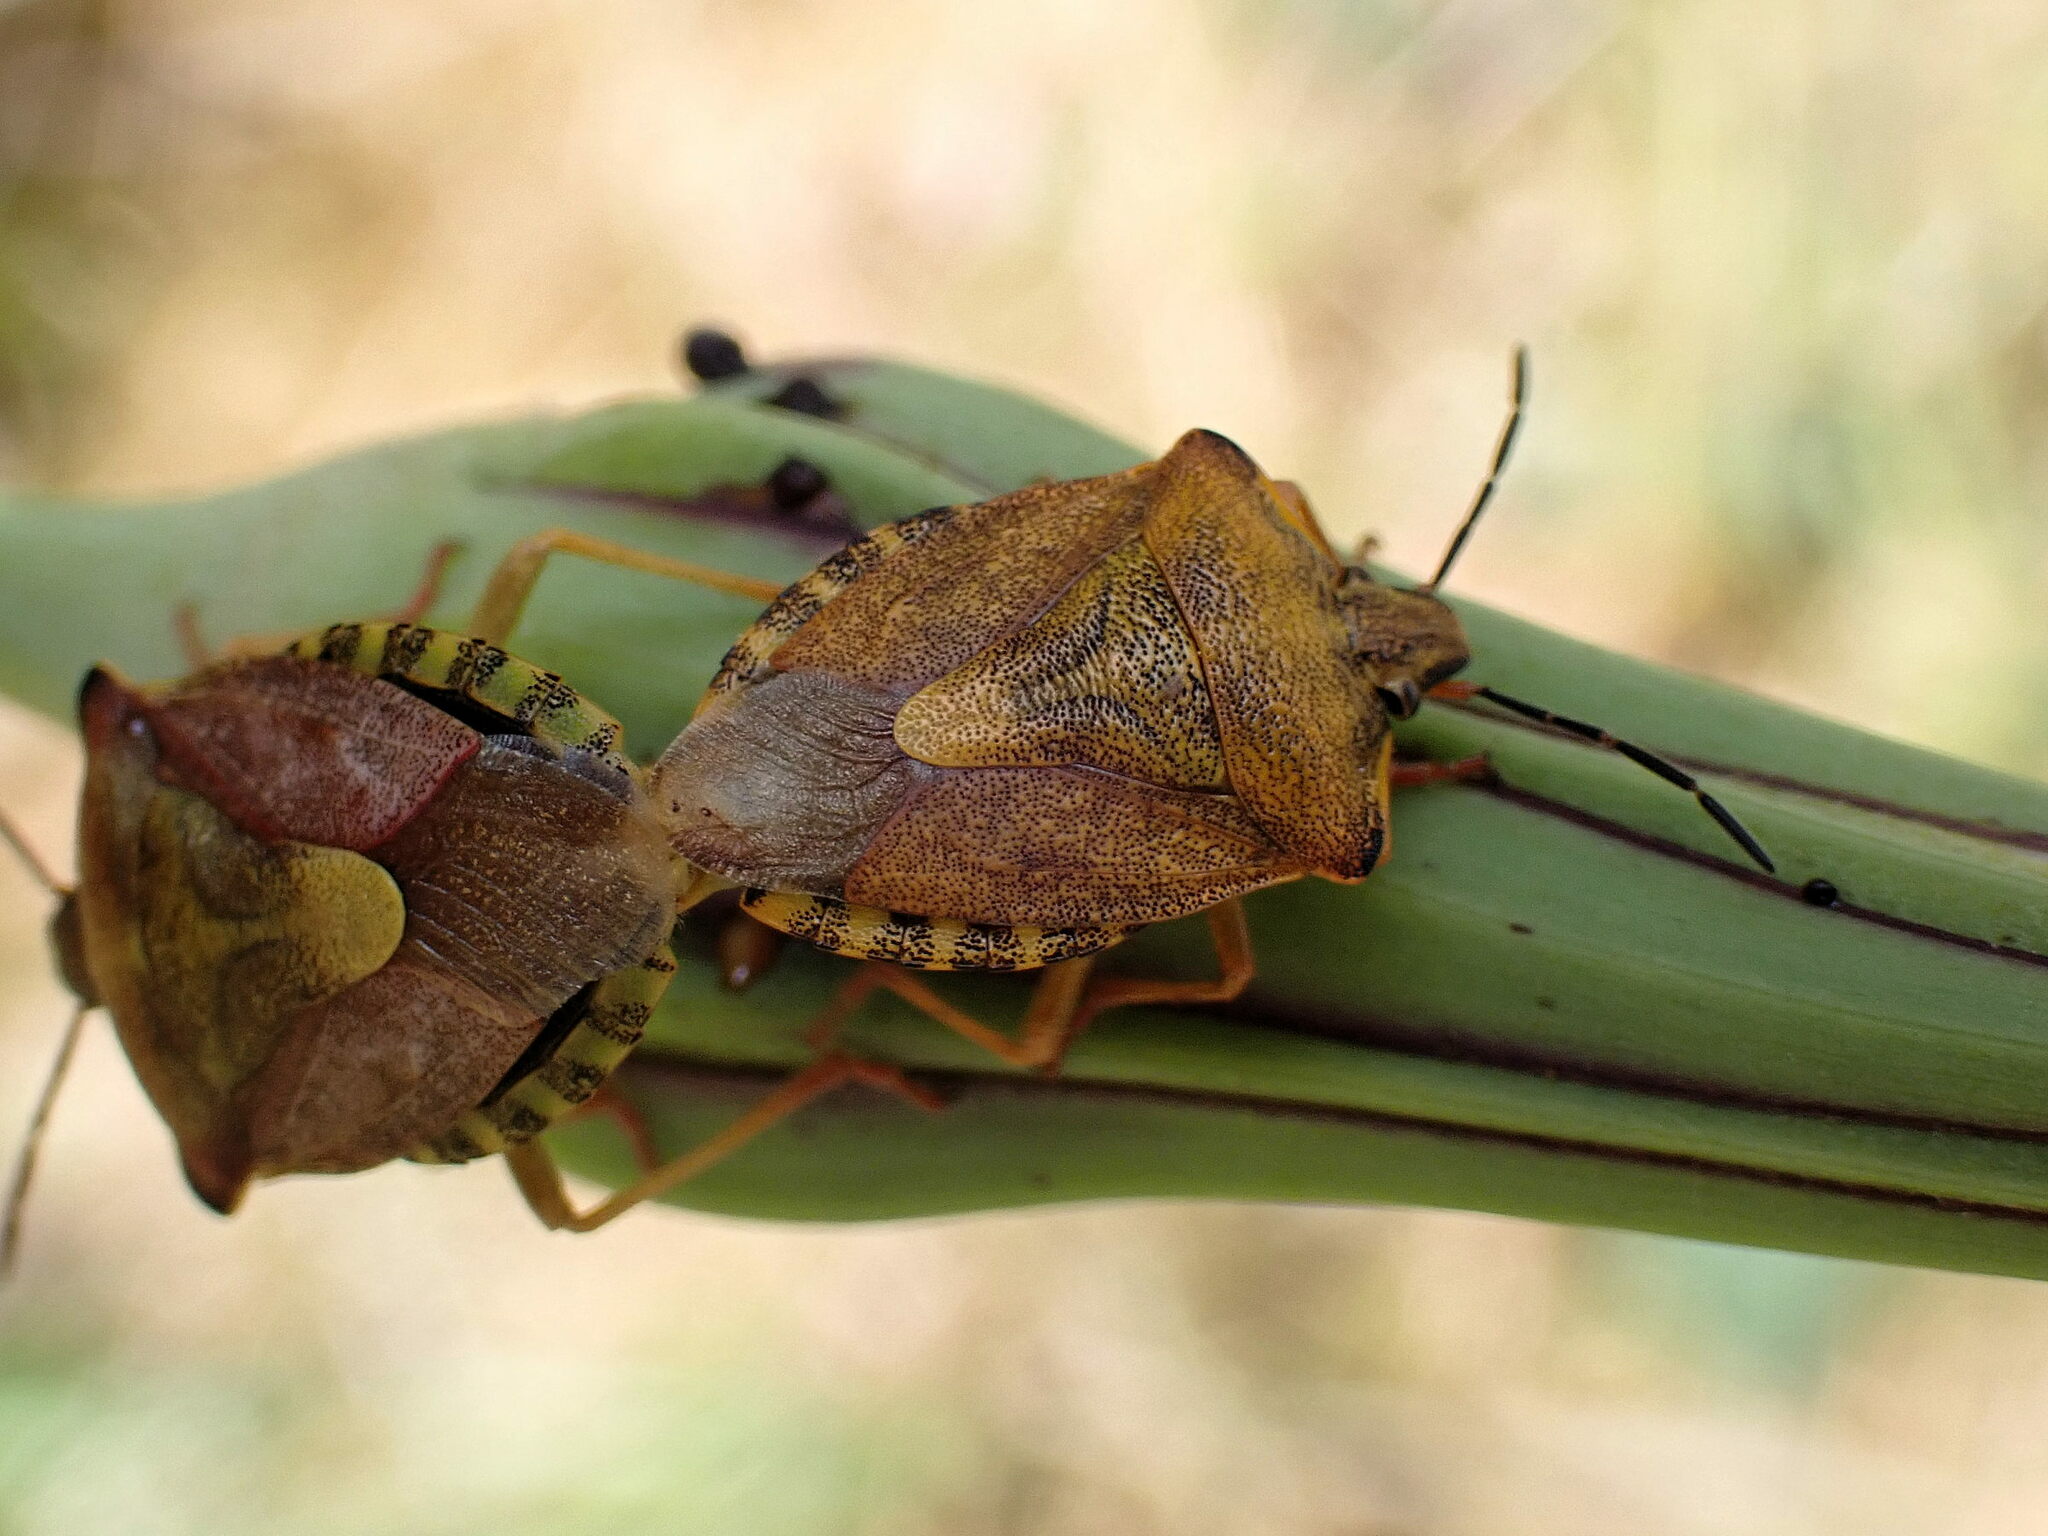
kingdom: Animalia
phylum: Arthropoda
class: Insecta
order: Hemiptera
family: Pentatomidae
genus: Carpocoris
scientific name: Carpocoris purpureipennis
